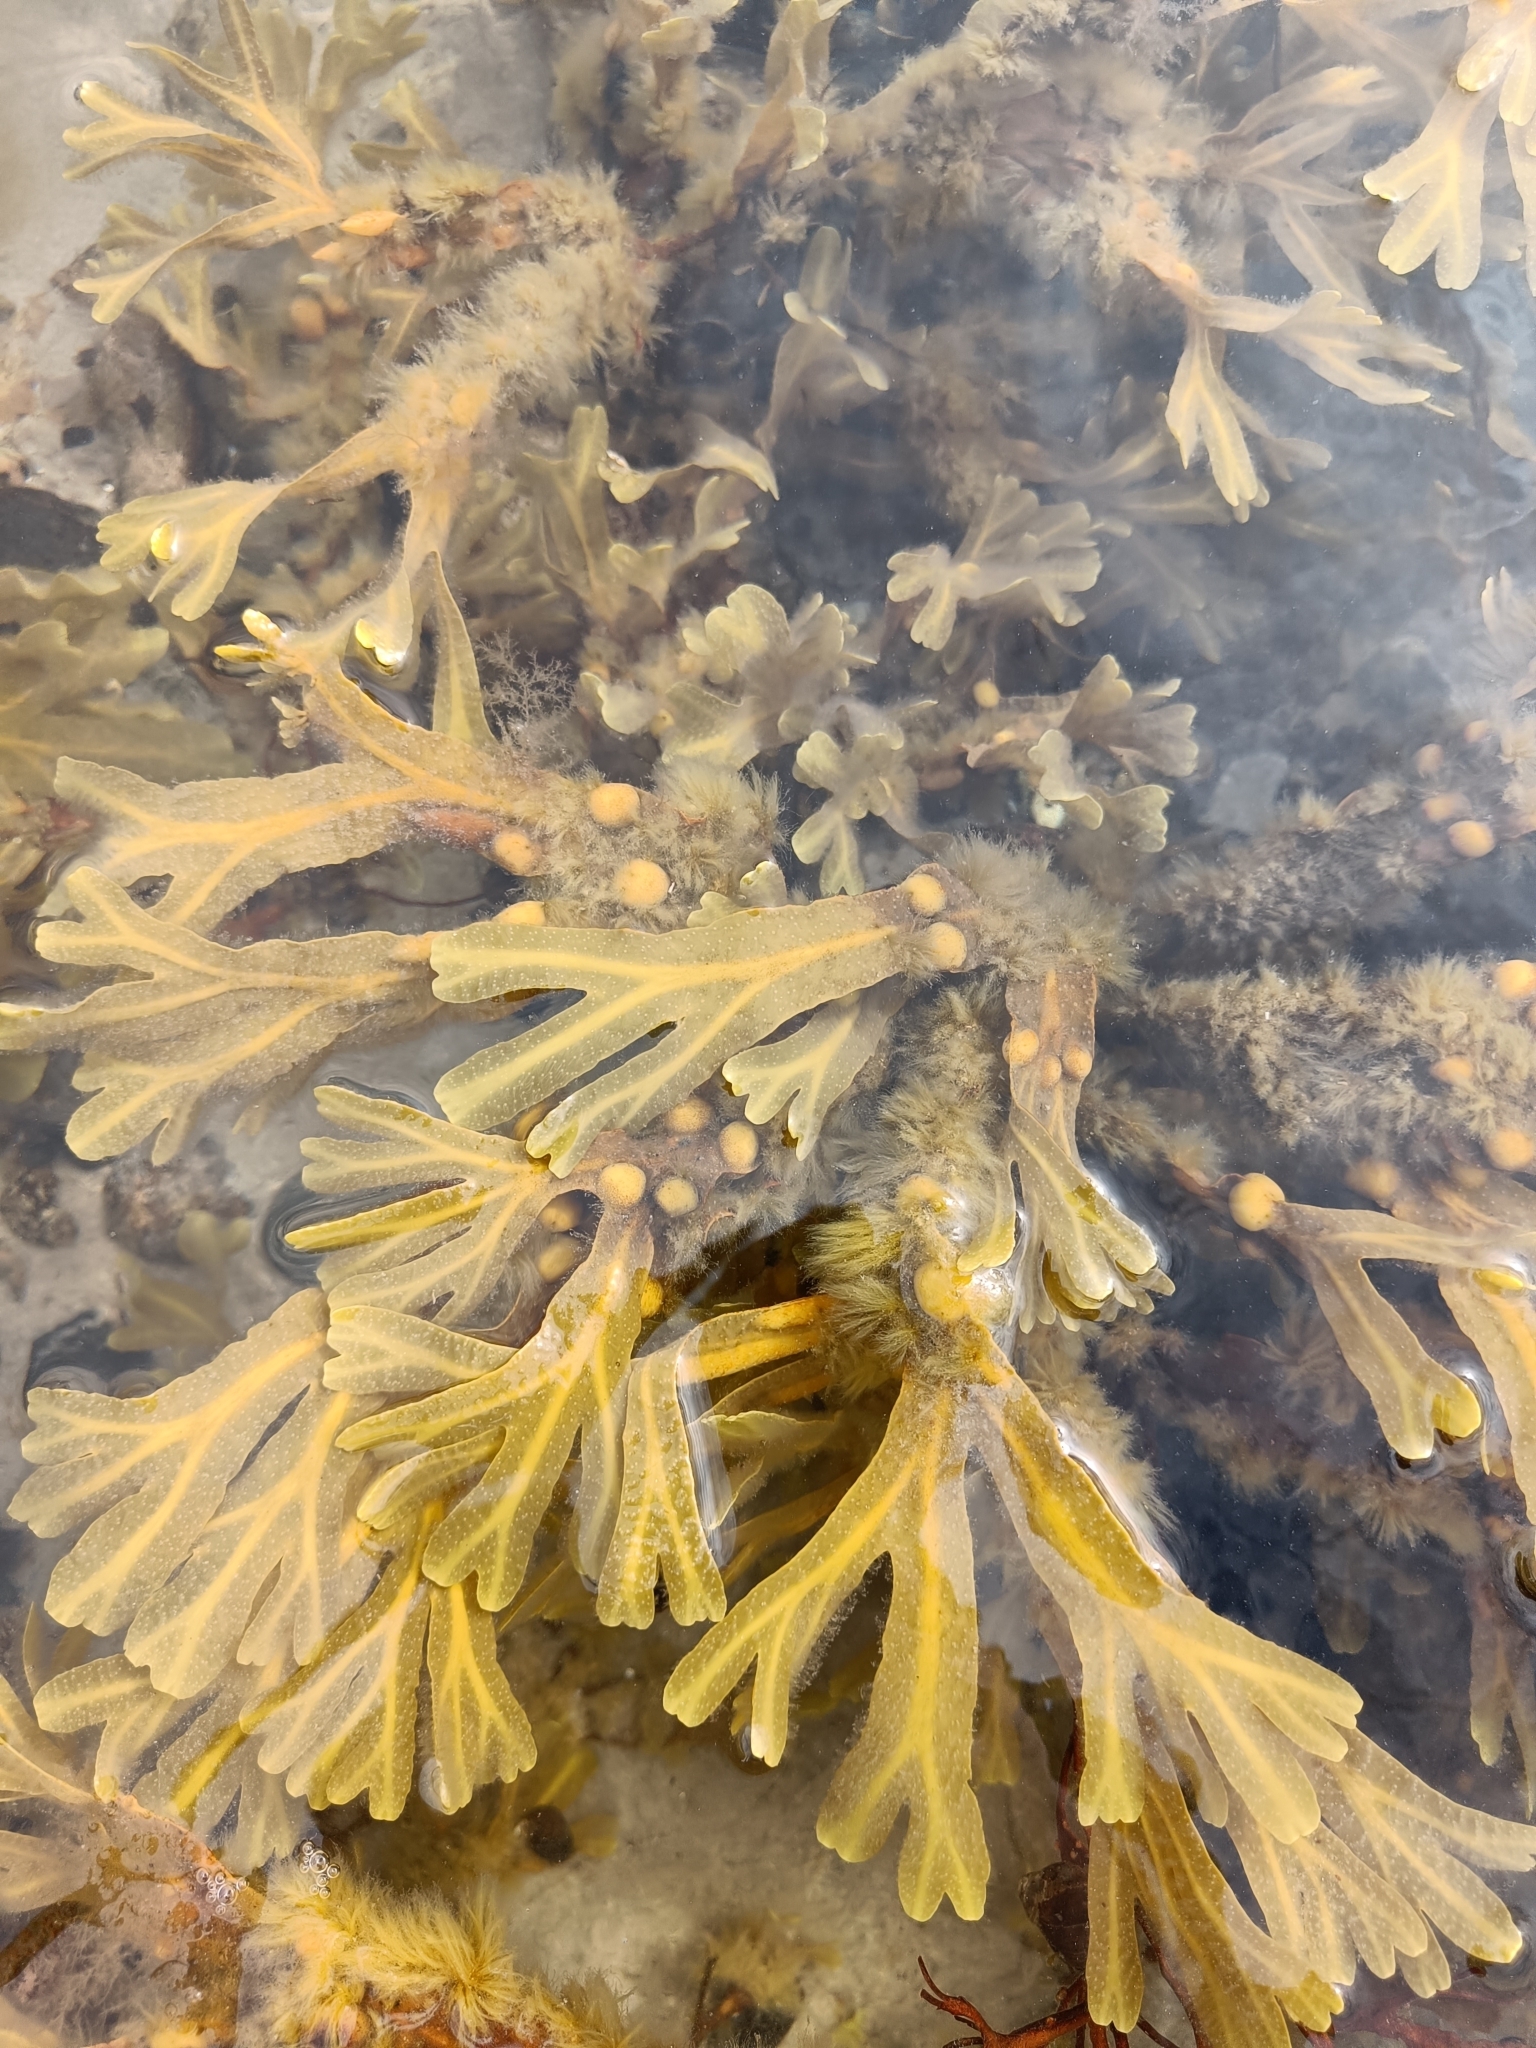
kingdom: Chromista
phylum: Ochrophyta
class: Phaeophyceae
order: Fucales
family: Fucaceae
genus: Fucus
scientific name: Fucus vesiculosus
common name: Bladder wrack
